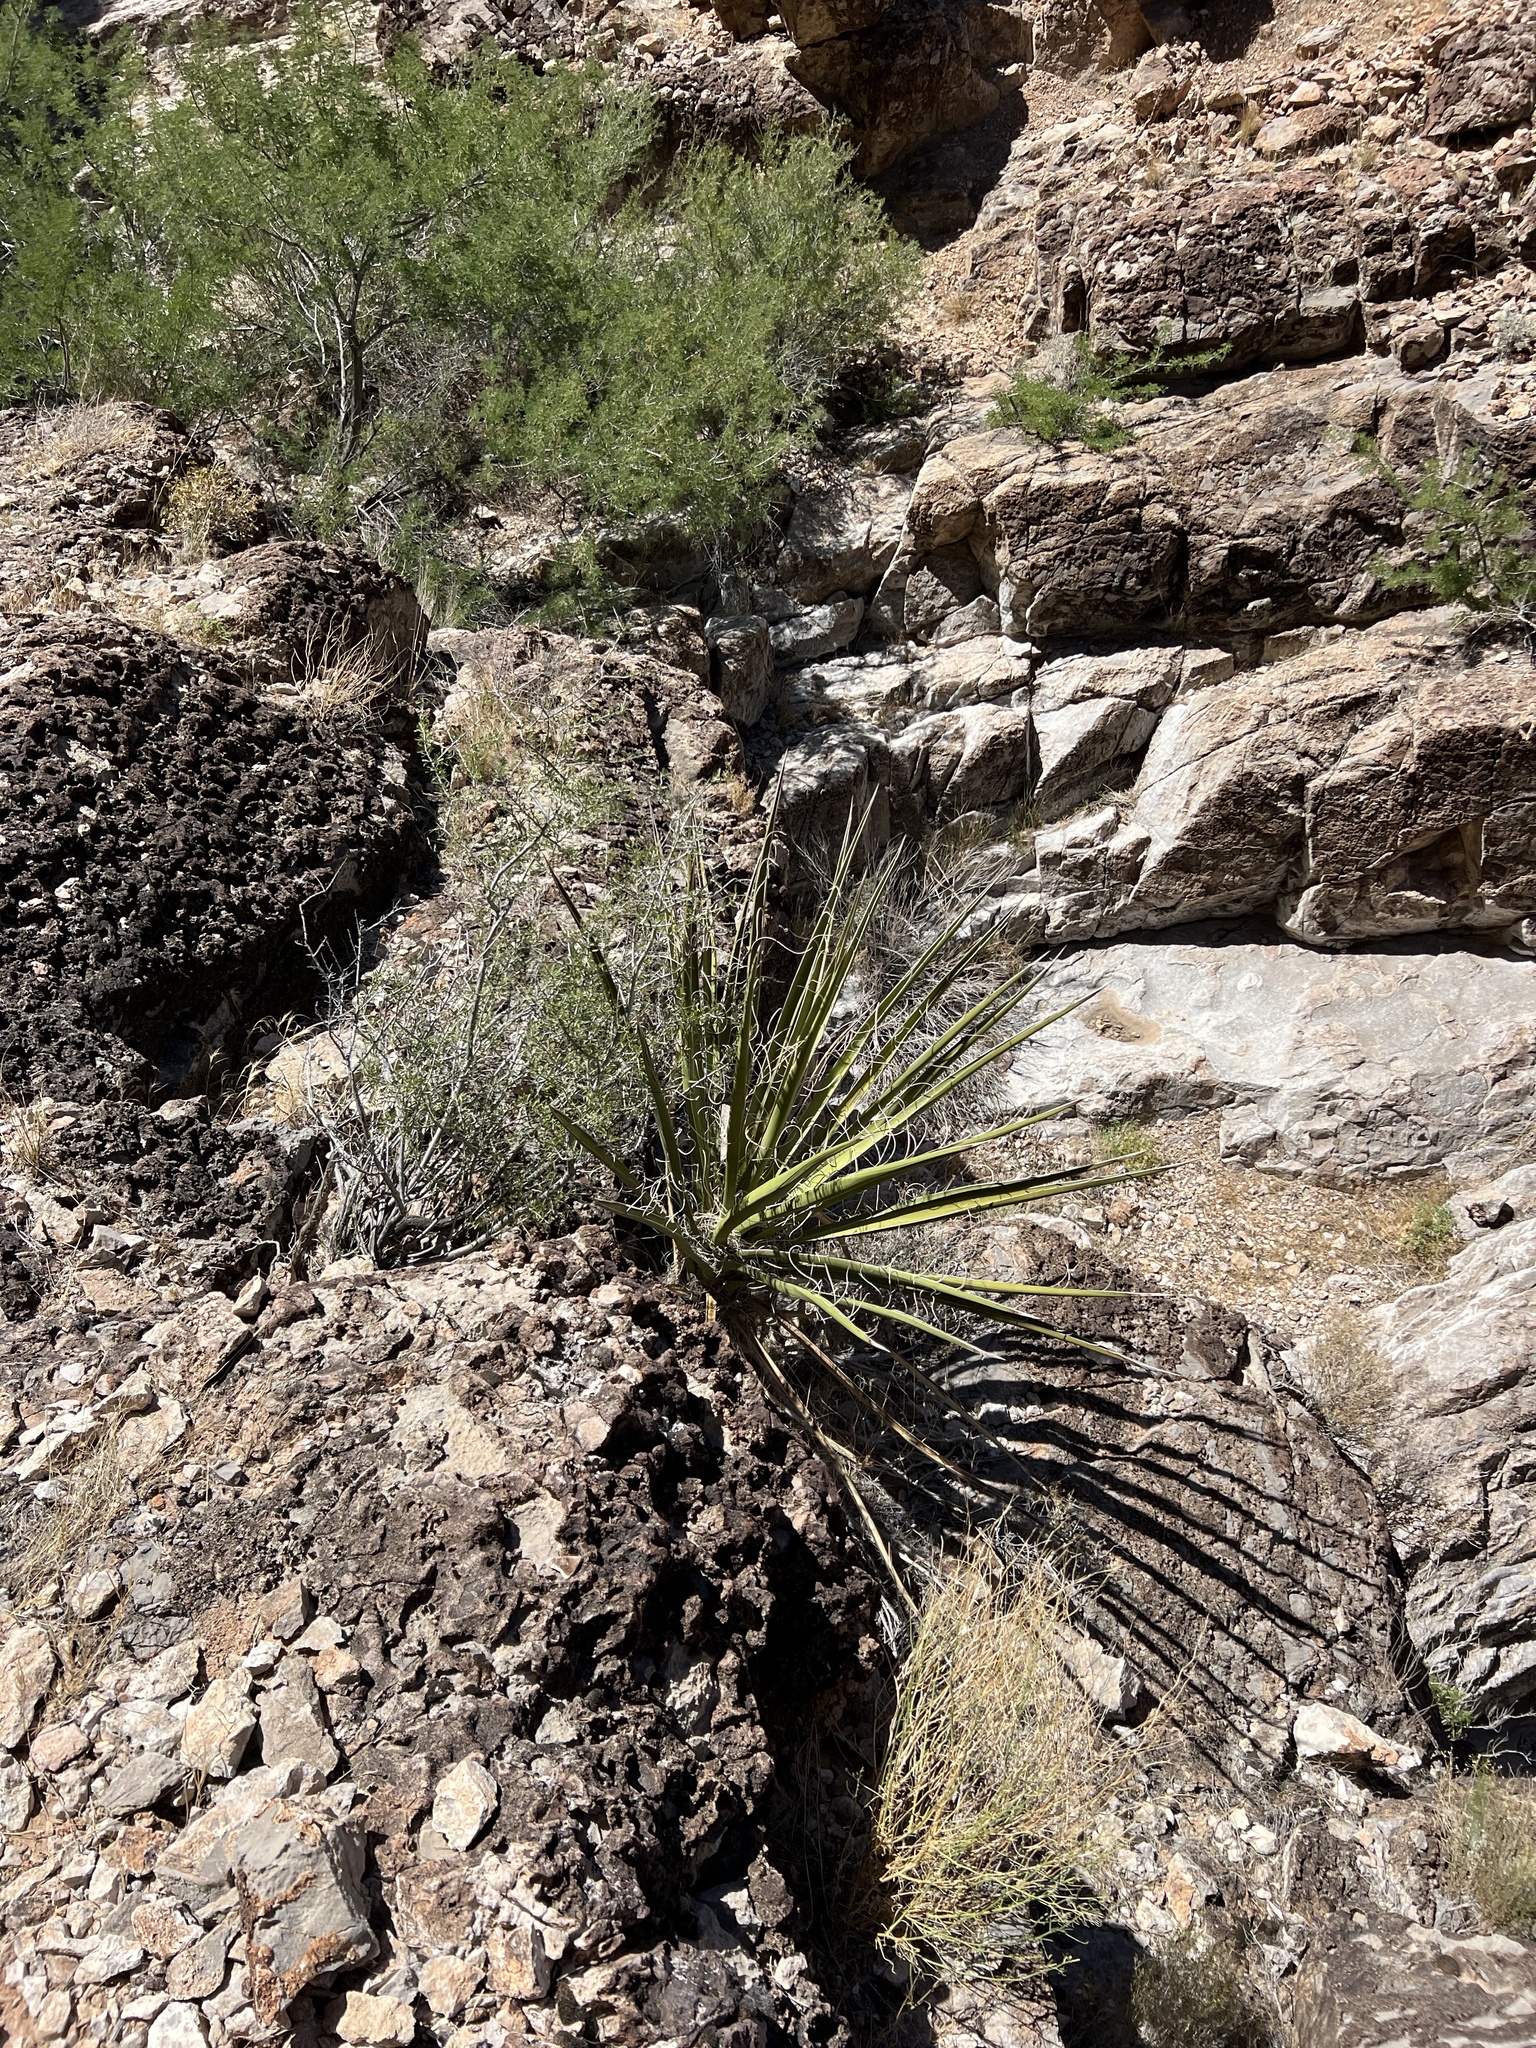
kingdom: Plantae
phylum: Tracheophyta
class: Liliopsida
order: Asparagales
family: Asparagaceae
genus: Yucca
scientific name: Yucca baccata
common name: Banana yucca
